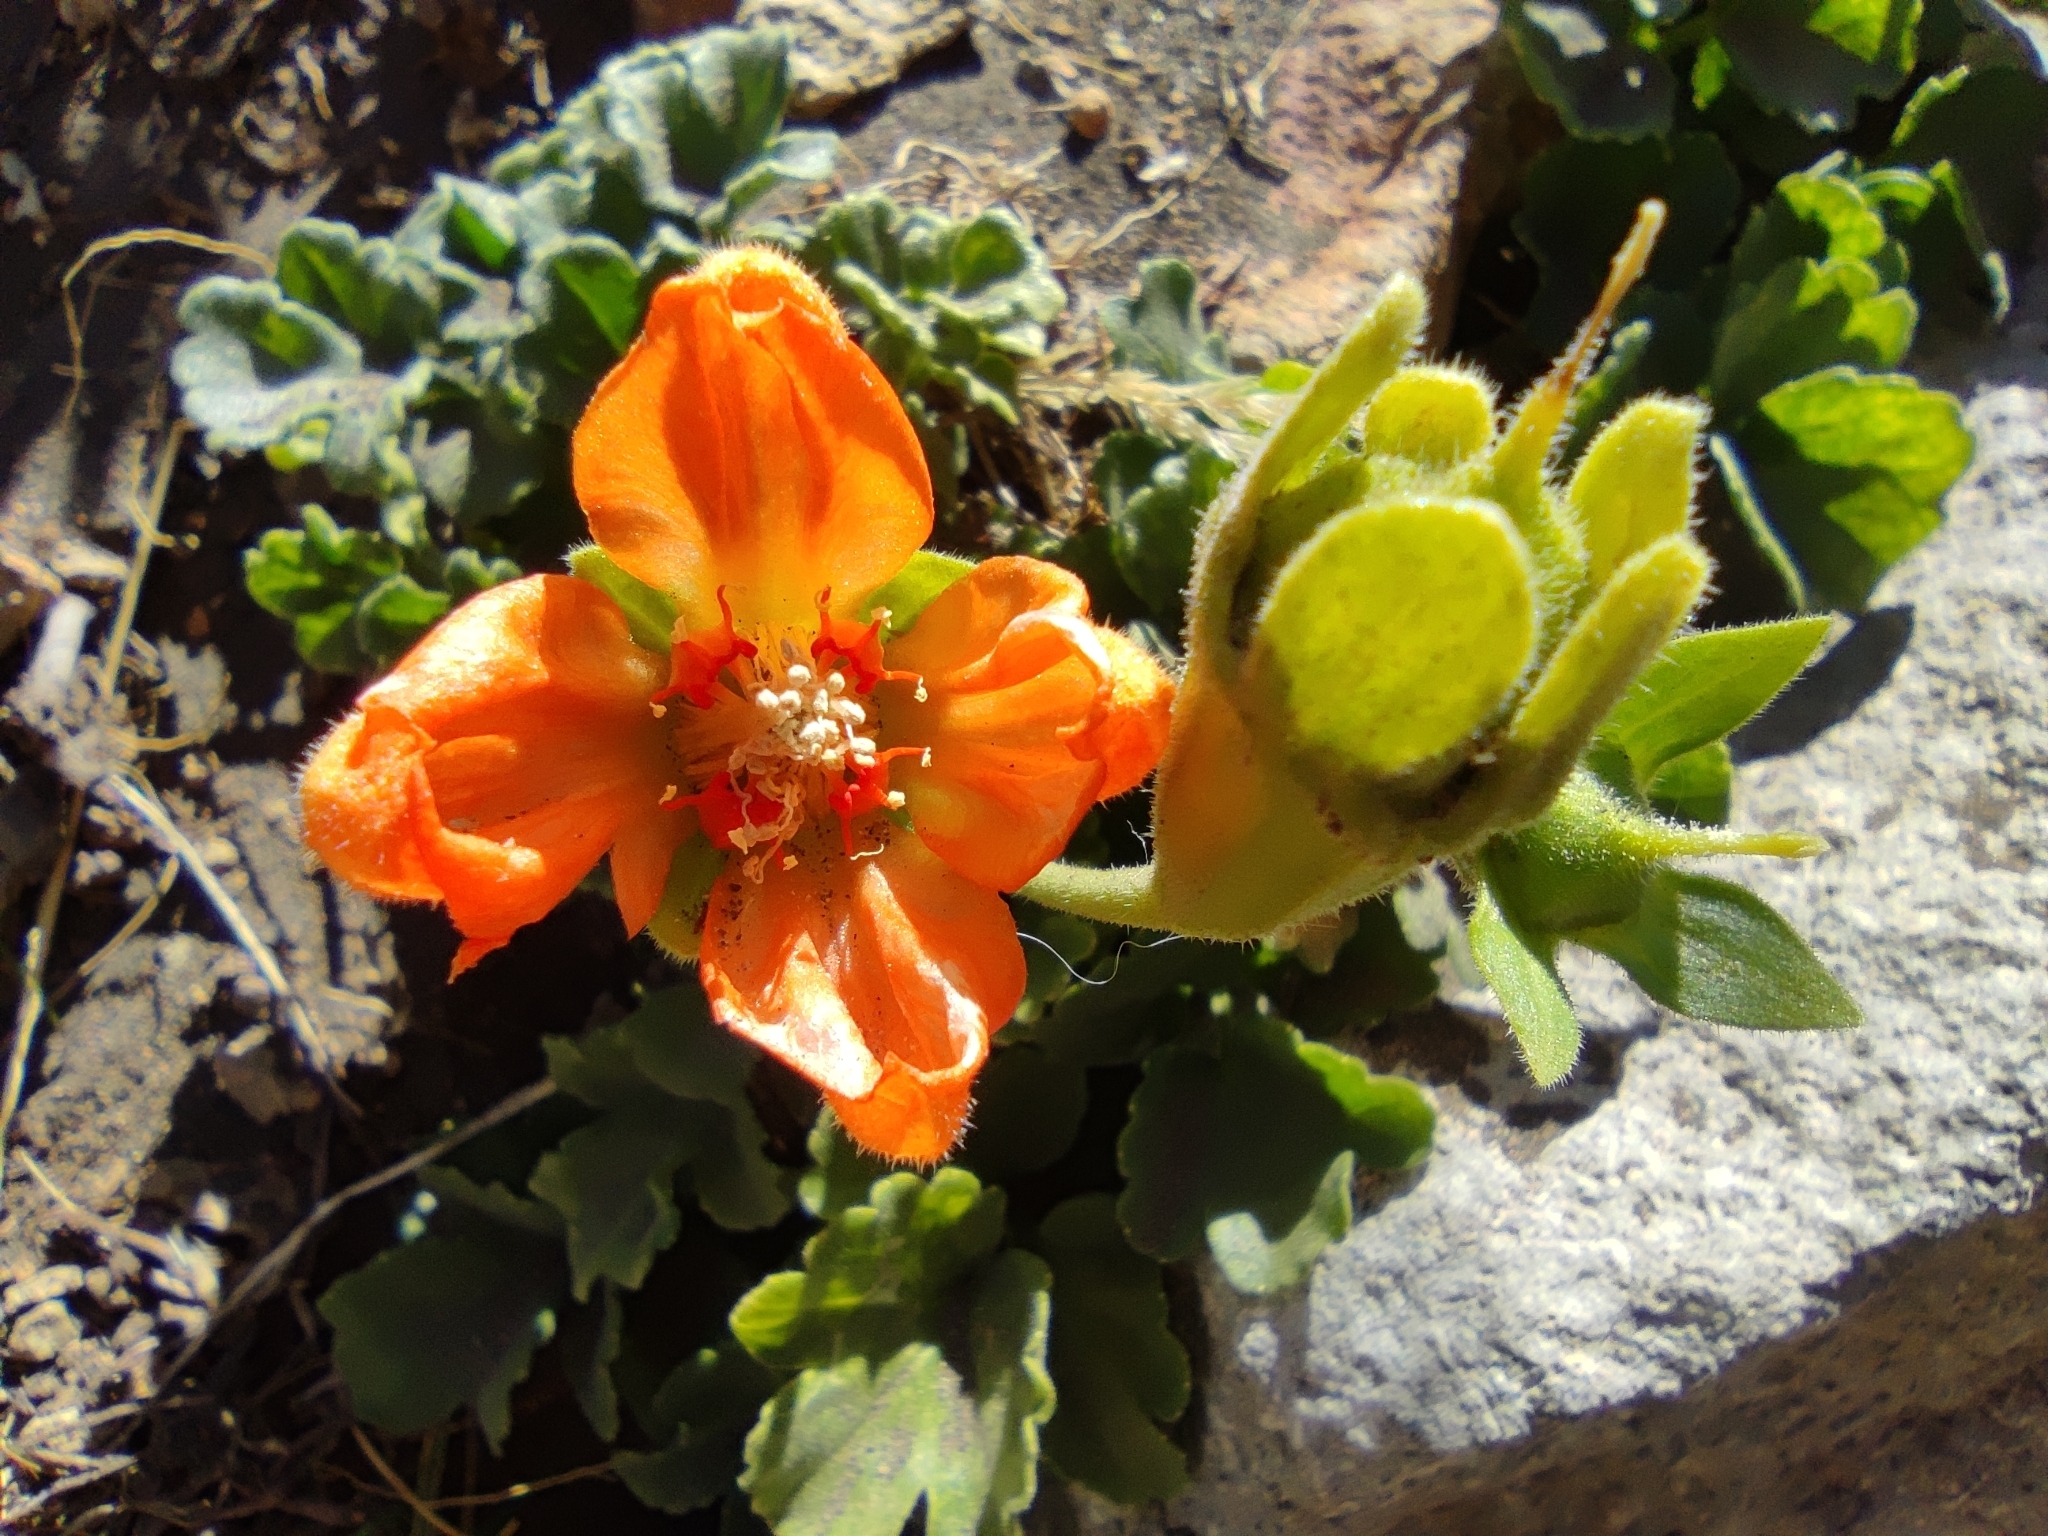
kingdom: Plantae
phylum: Tracheophyta
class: Magnoliopsida
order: Cornales
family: Loasaceae
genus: Grausa
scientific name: Grausa lateritia
